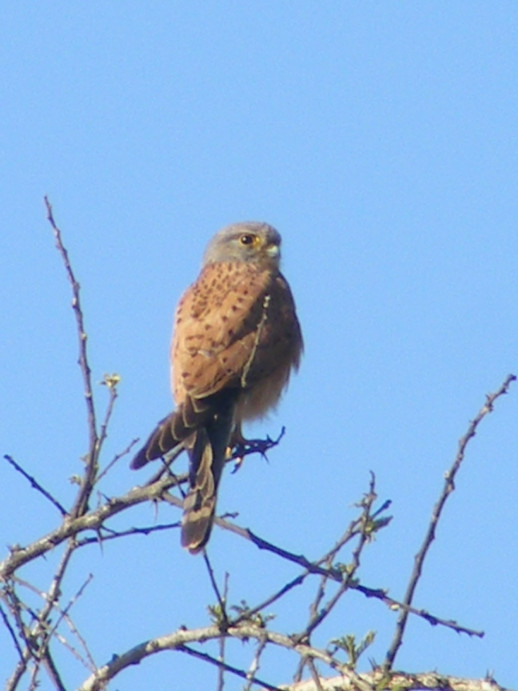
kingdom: Animalia
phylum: Chordata
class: Aves
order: Falconiformes
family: Falconidae
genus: Falco
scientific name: Falco rupicolus
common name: Rock kestrel
